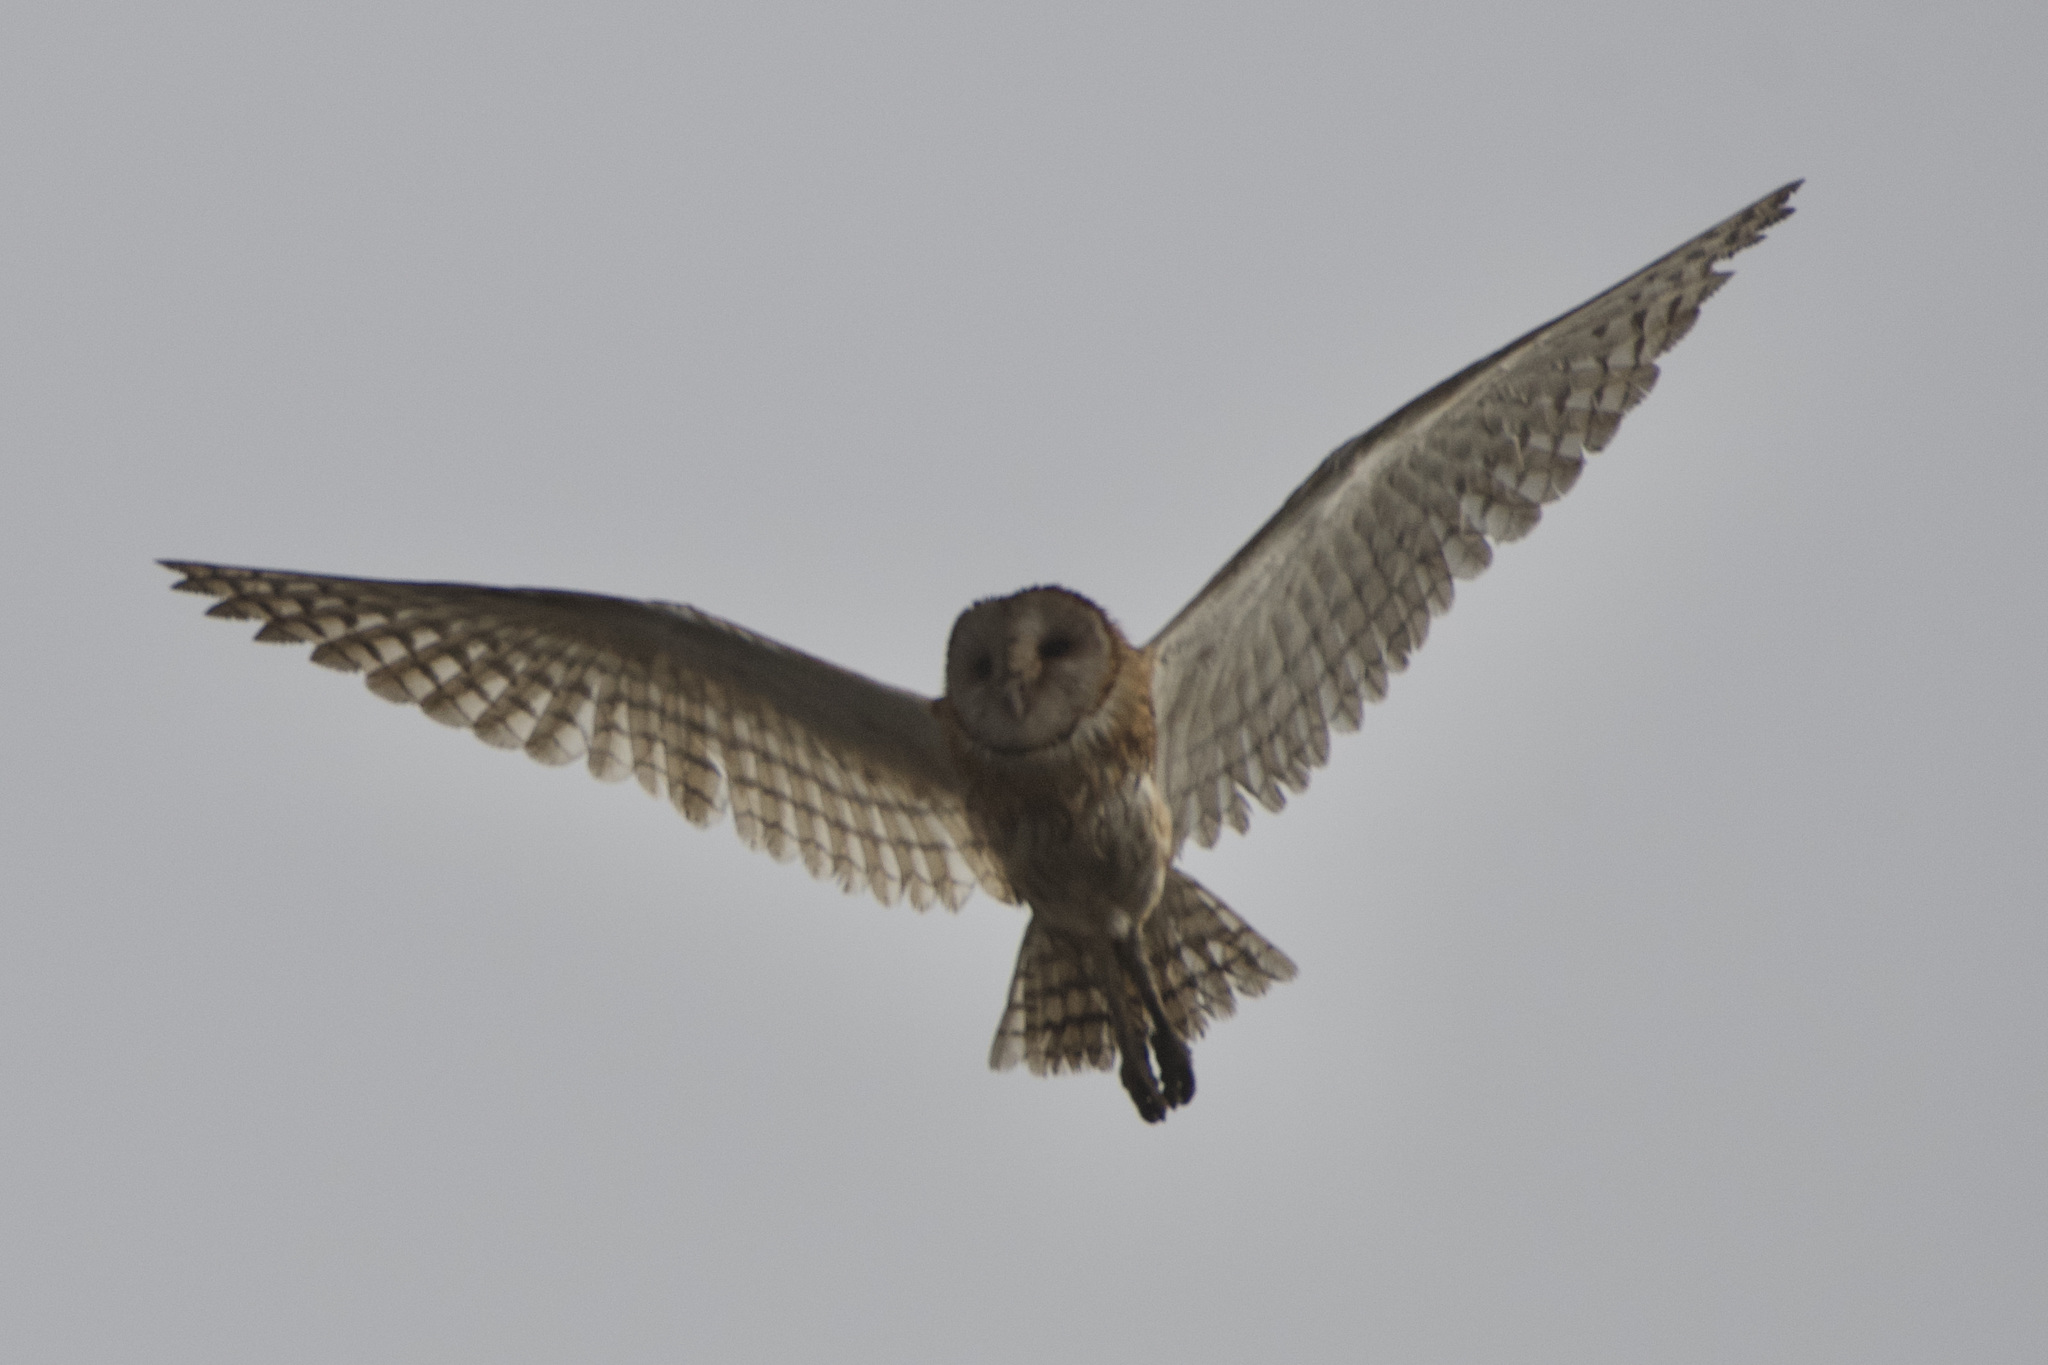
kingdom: Animalia
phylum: Chordata
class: Aves
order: Strigiformes
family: Tytonidae
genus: Tyto
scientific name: Tyto alba
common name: Barn owl
